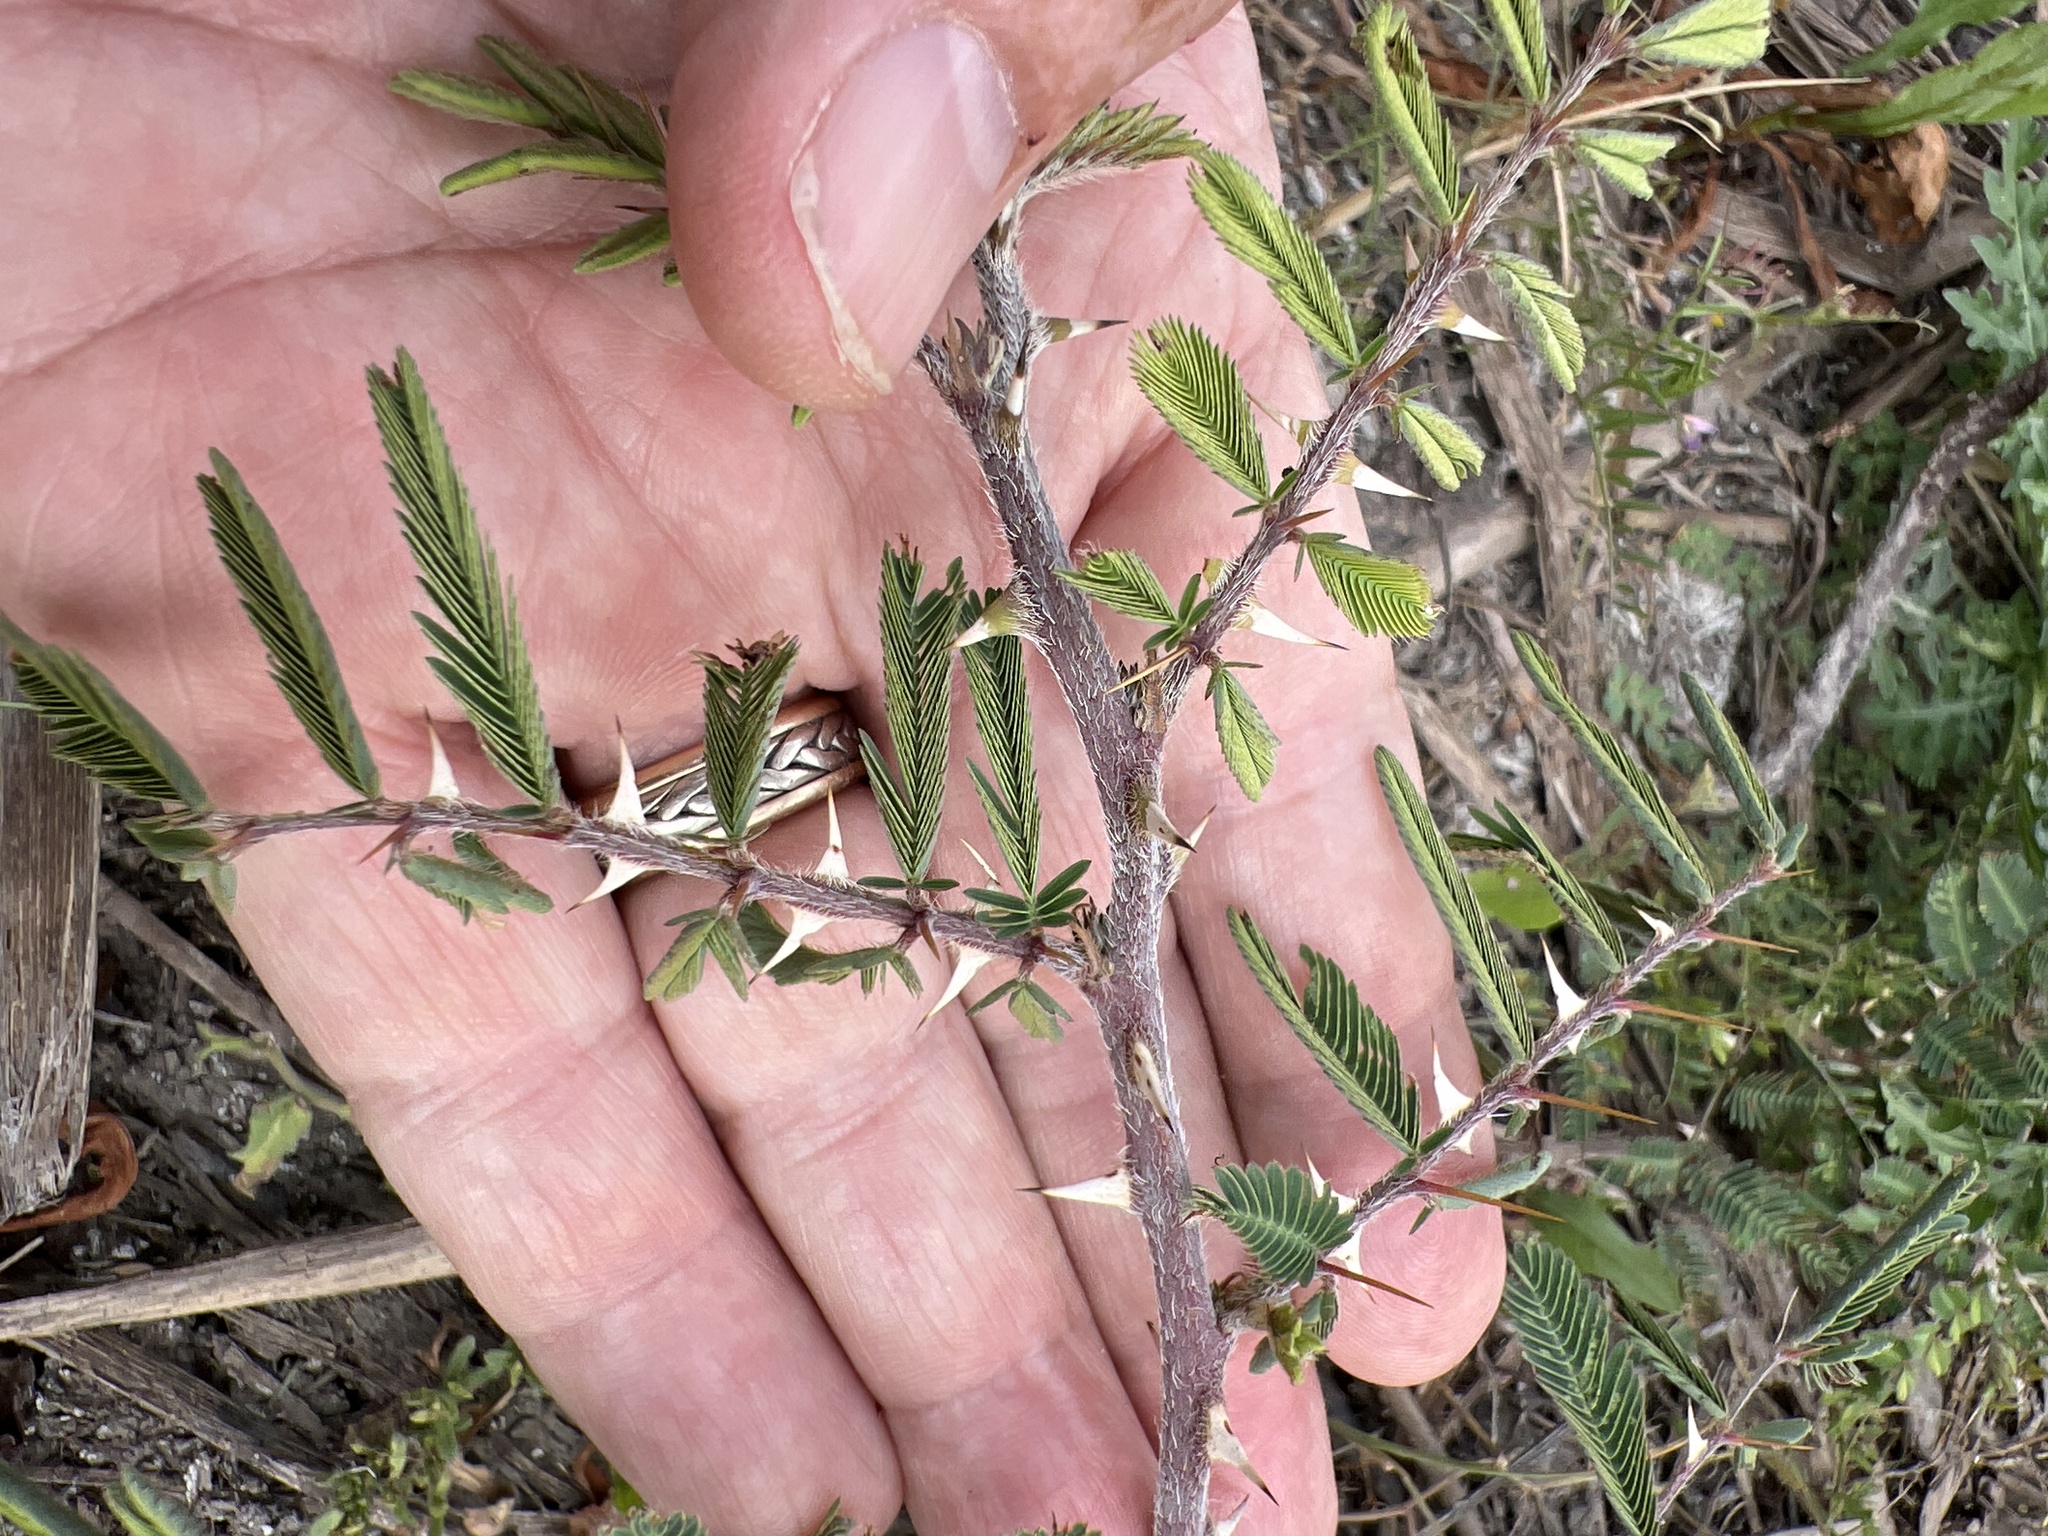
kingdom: Plantae
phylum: Tracheophyta
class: Magnoliopsida
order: Fabales
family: Fabaceae
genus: Mimosa
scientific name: Mimosa pigra
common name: Black mimosa
